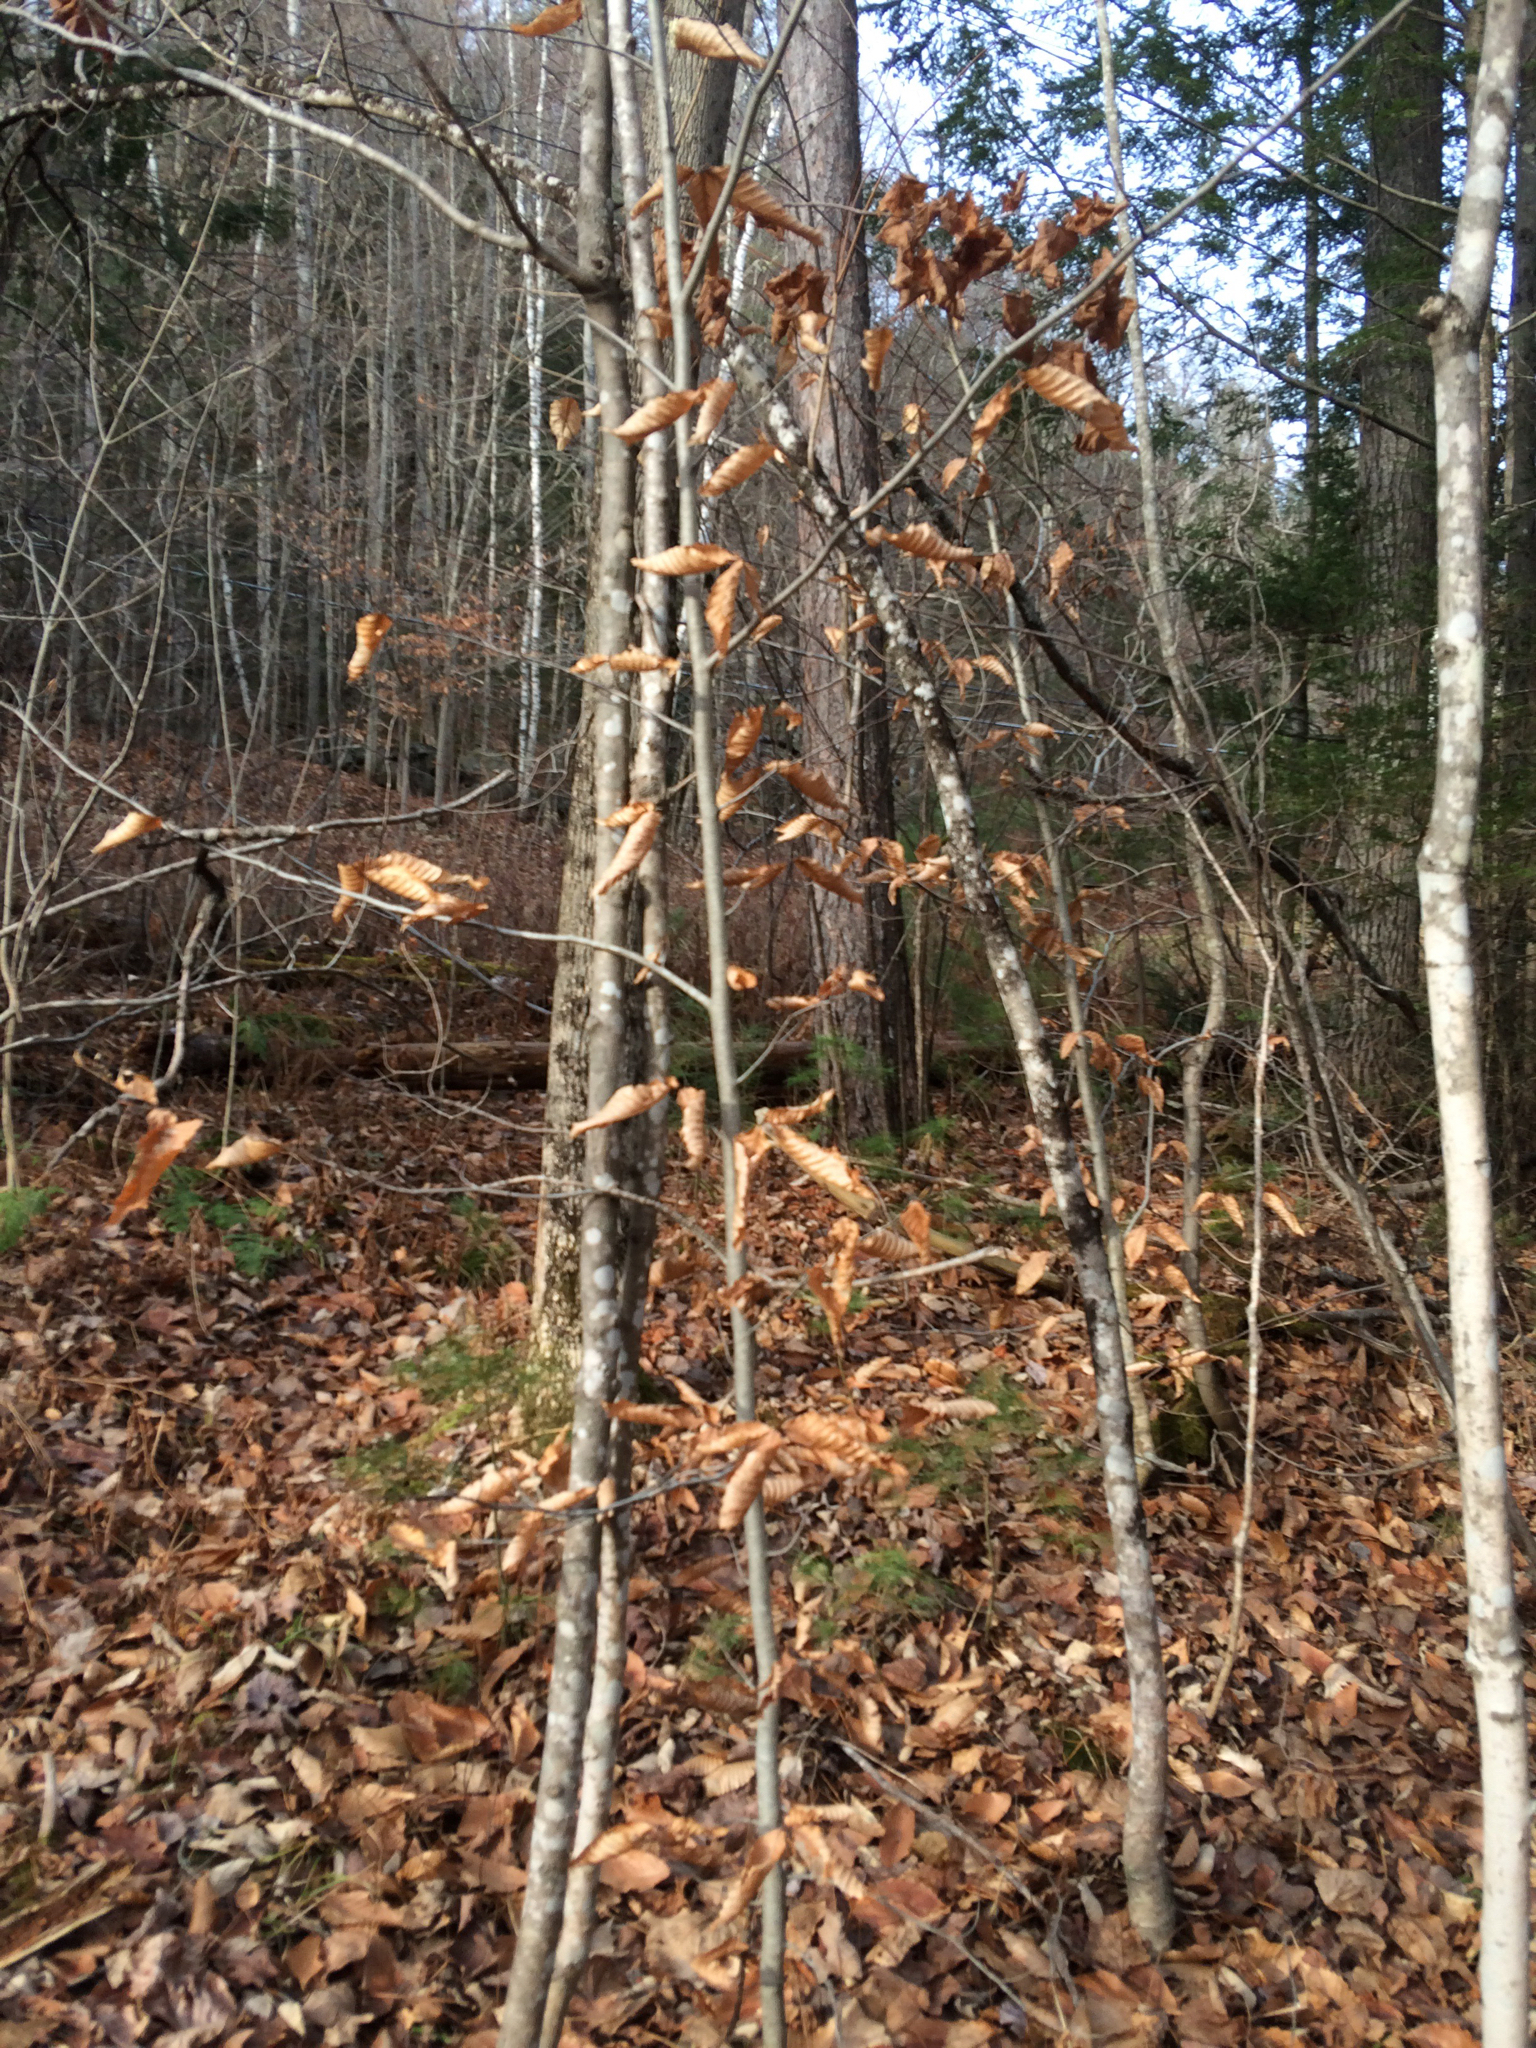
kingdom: Plantae
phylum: Tracheophyta
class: Magnoliopsida
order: Fagales
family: Fagaceae
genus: Fagus
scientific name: Fagus grandifolia
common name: American beech
